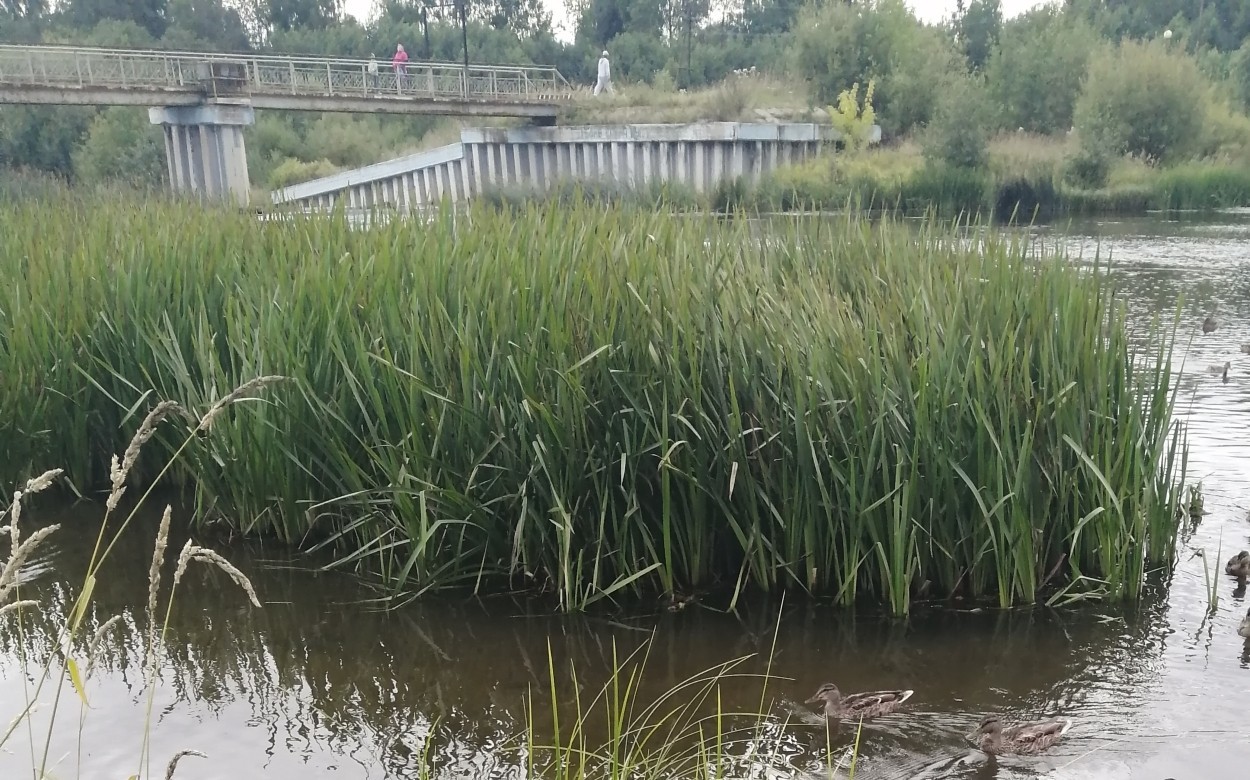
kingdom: Plantae
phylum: Tracheophyta
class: Liliopsida
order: Poales
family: Typhaceae
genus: Typha
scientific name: Typha latifolia
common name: Broadleaf cattail
